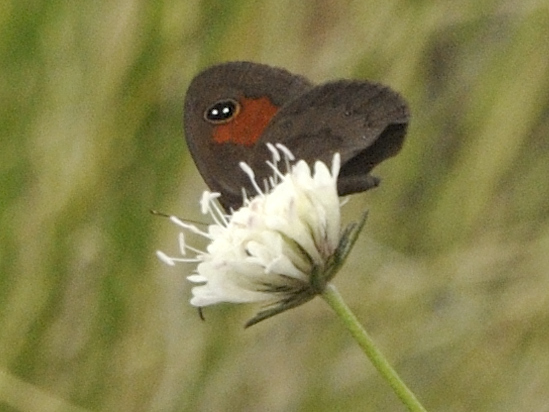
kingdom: Animalia
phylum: Arthropoda
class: Insecta
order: Lepidoptera
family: Nymphalidae
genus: Neita
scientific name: Neita durbani
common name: D'urban's brown
